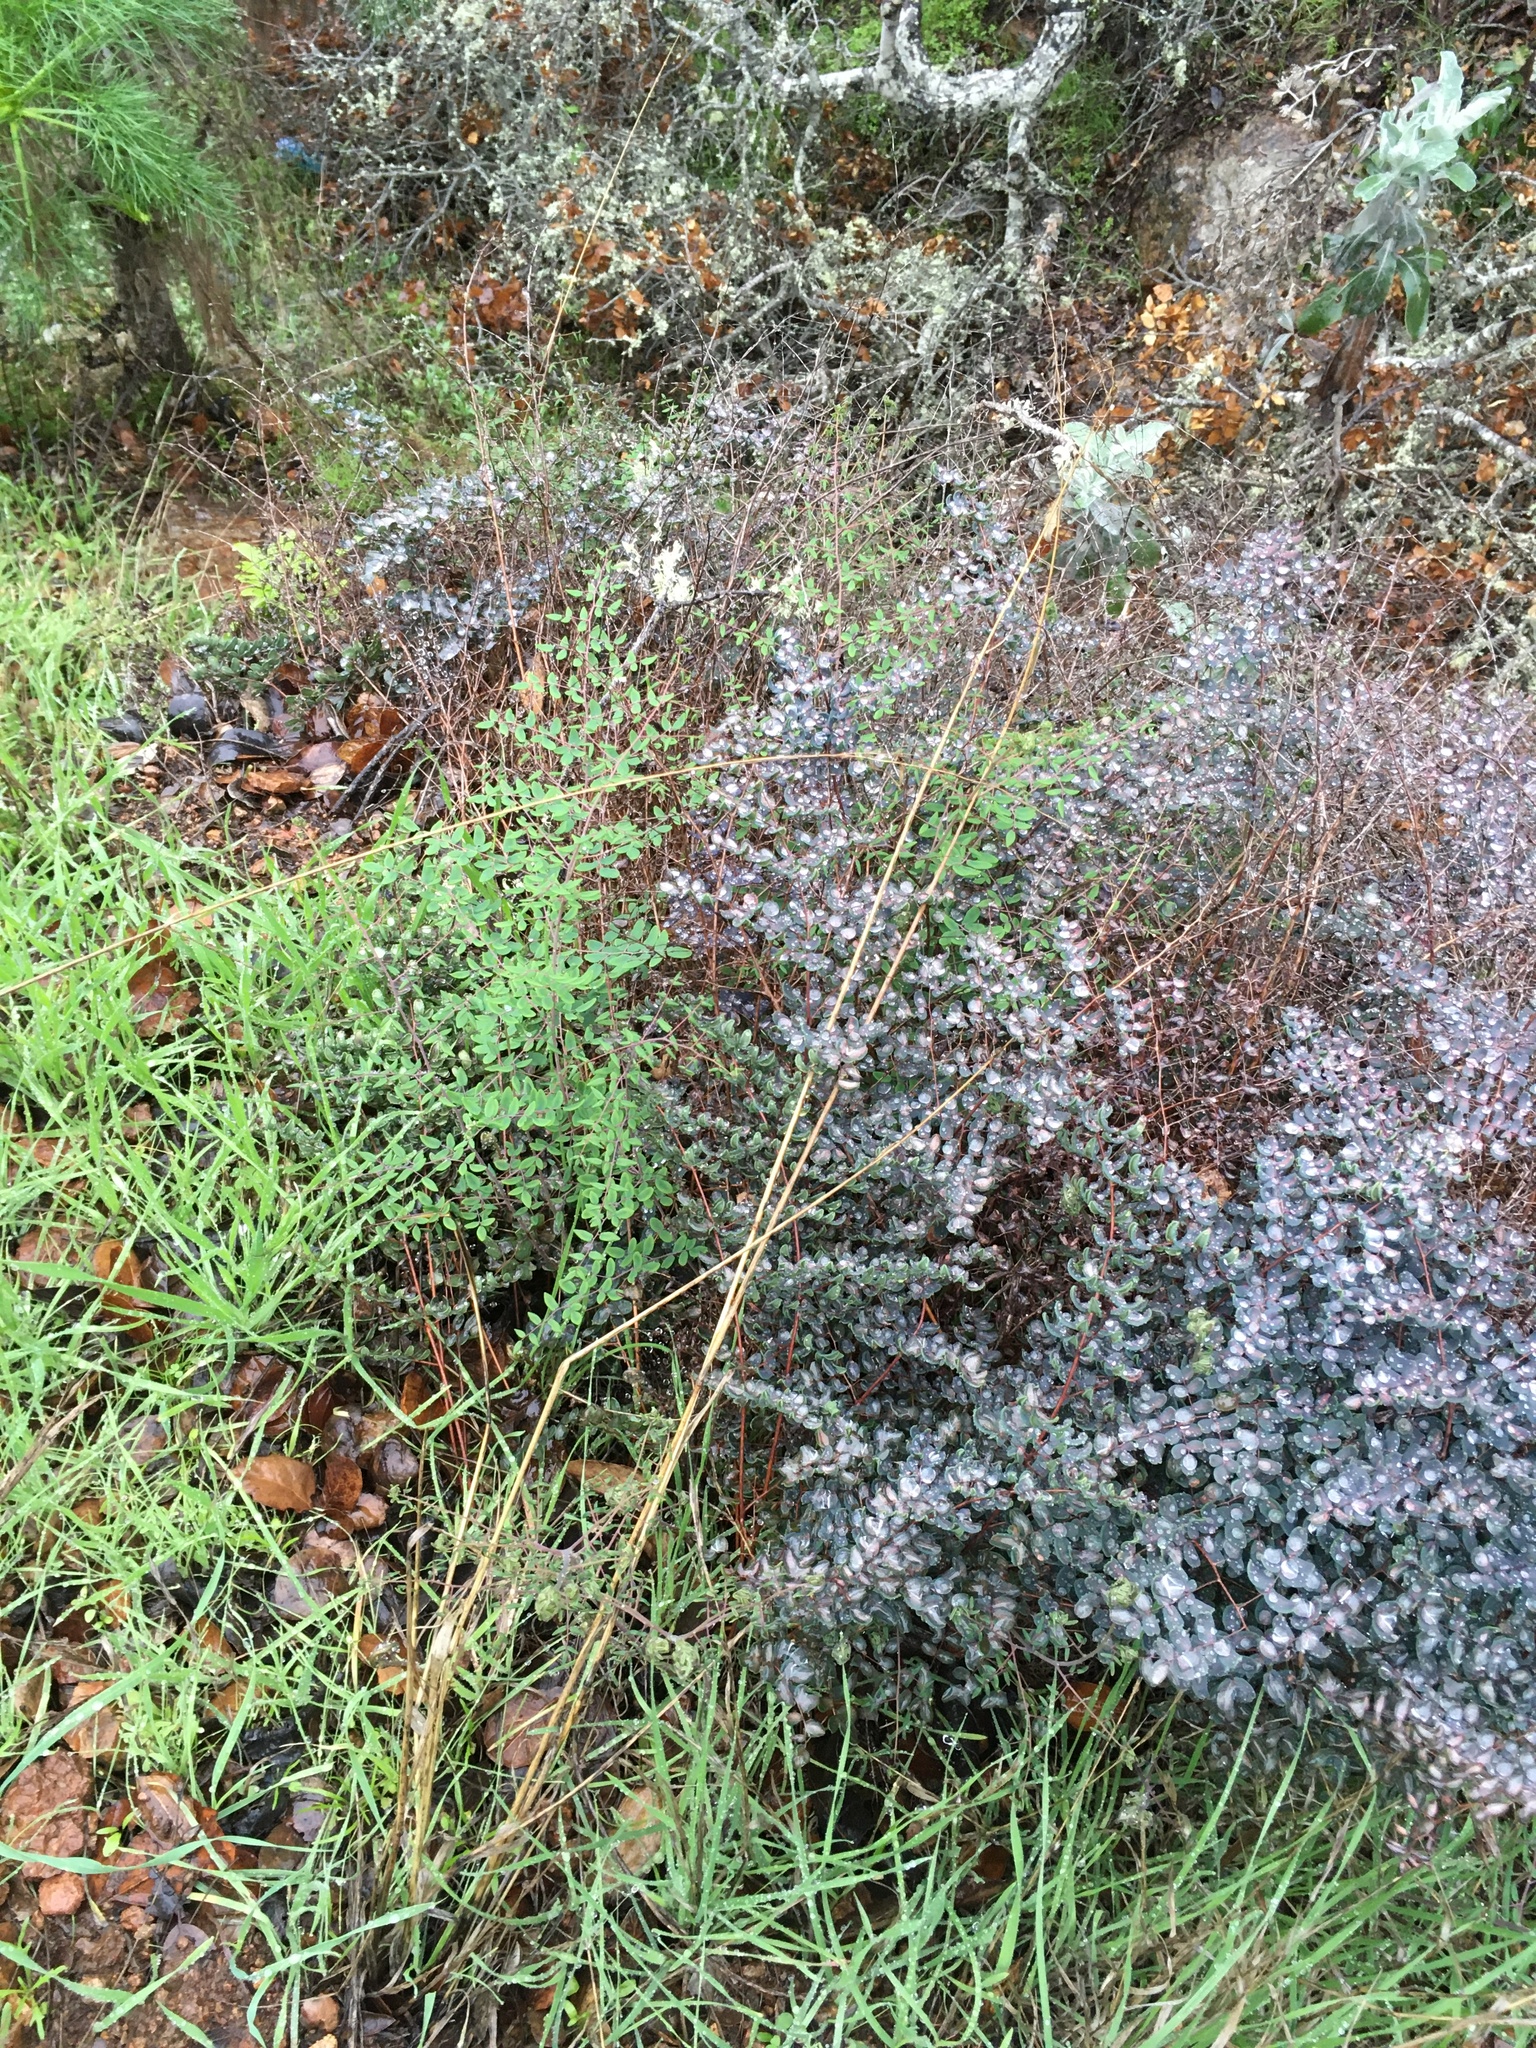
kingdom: Plantae
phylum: Tracheophyta
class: Polypodiopsida
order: Polypodiales
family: Pteridaceae
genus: Pellaea
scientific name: Pellaea andromedifolia
